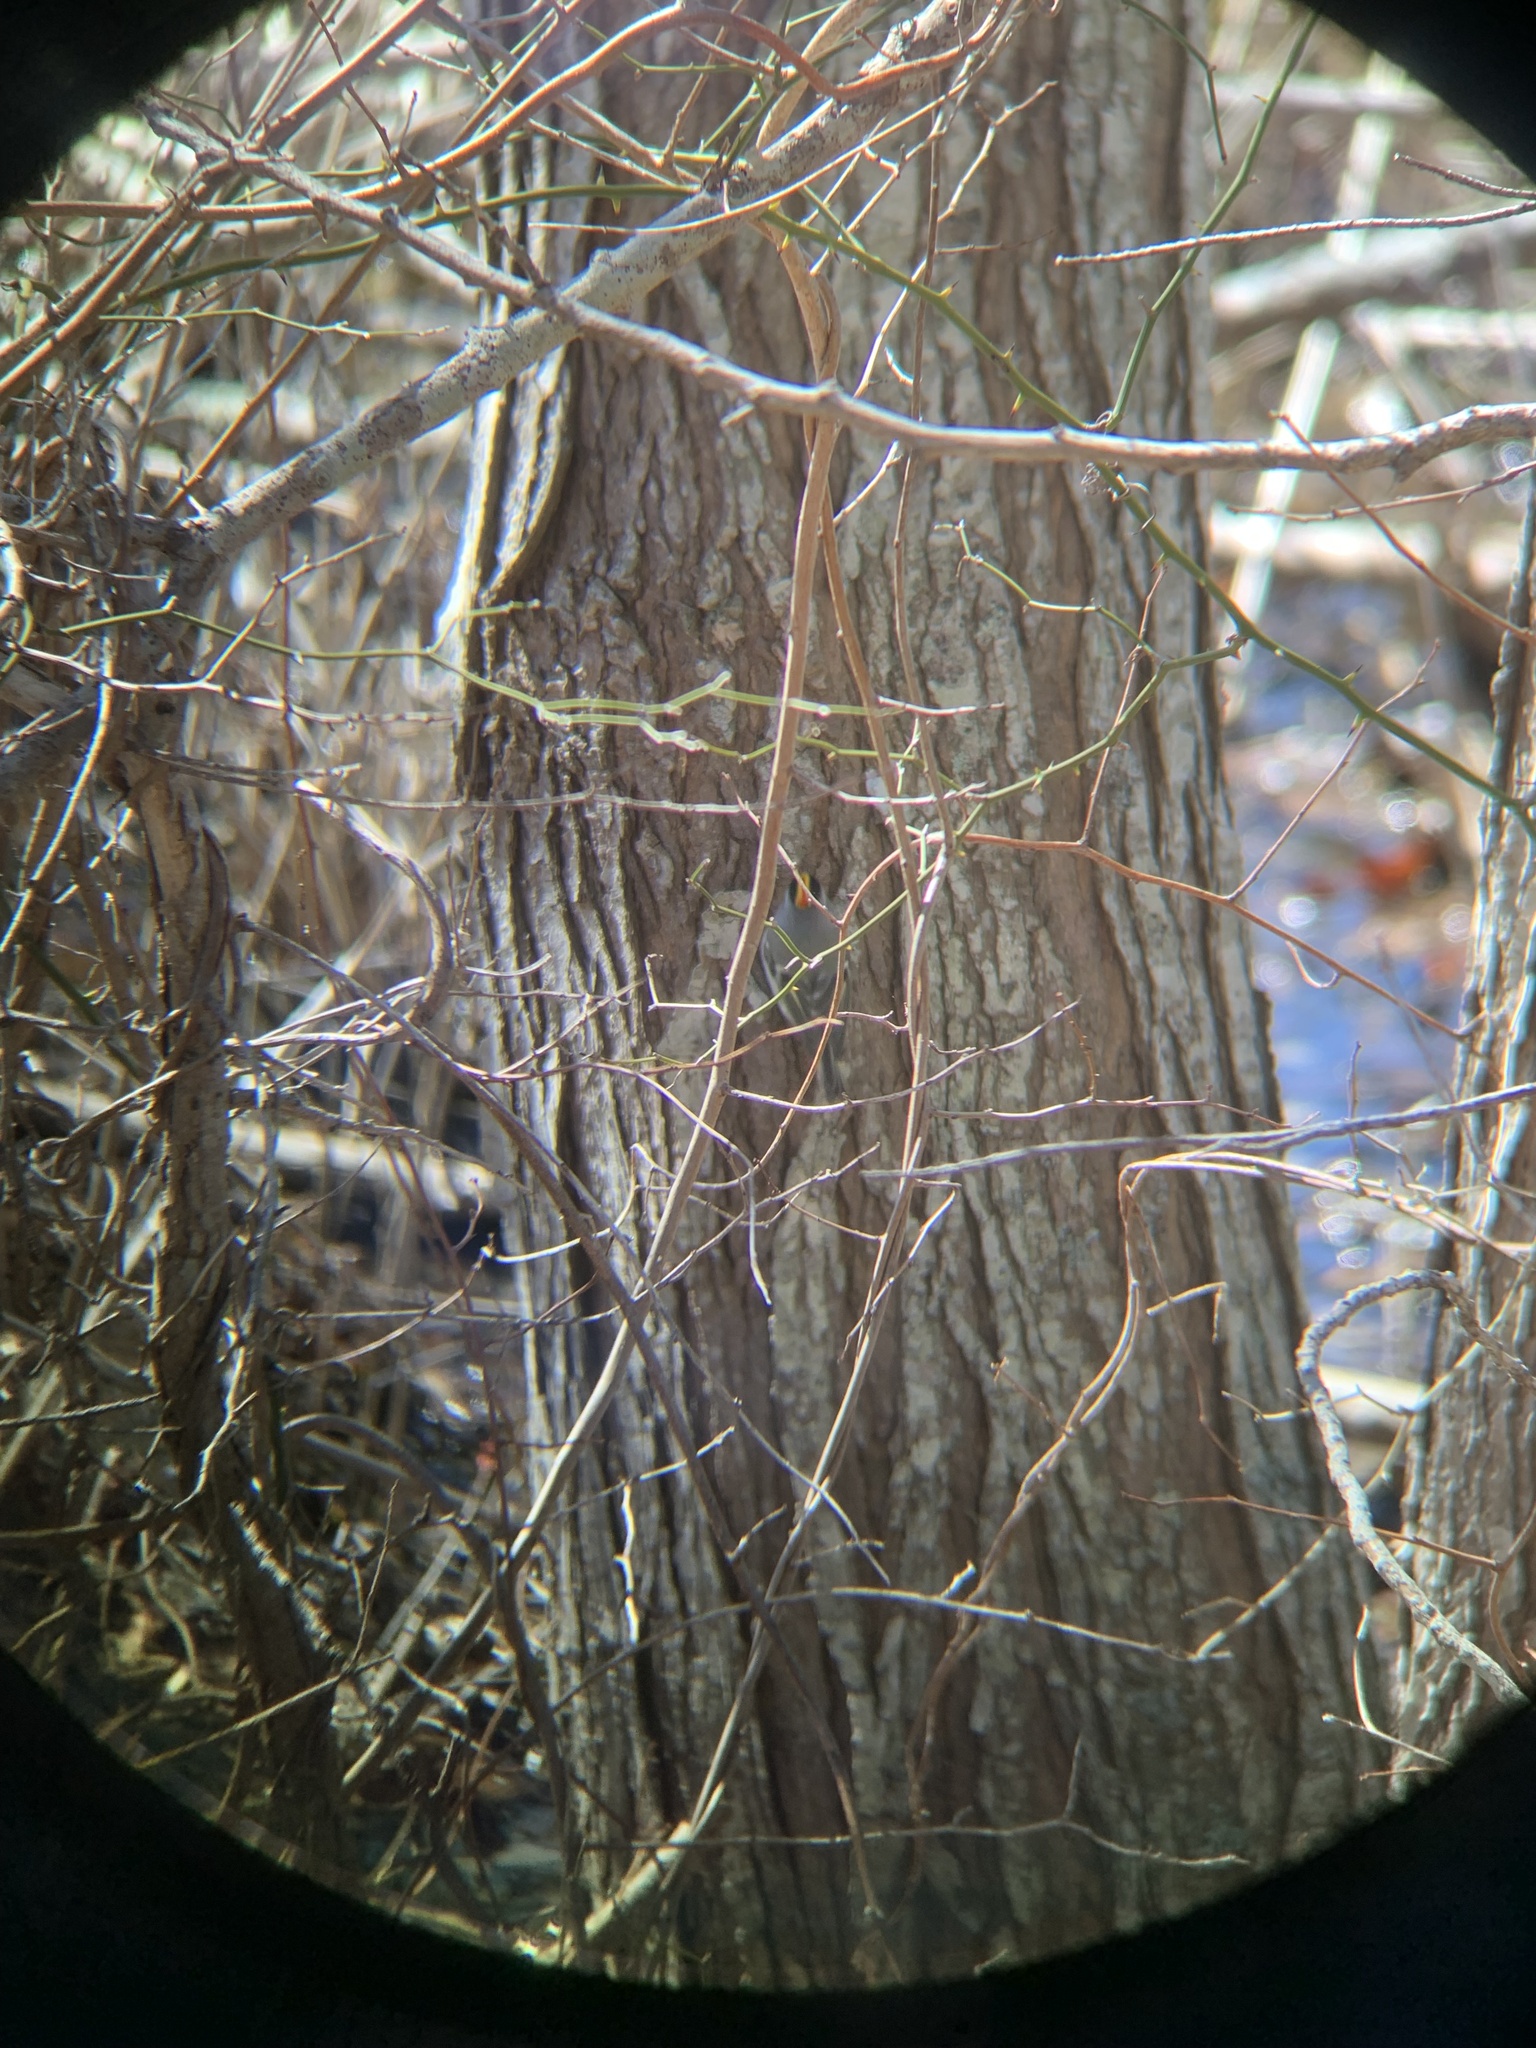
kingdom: Animalia
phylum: Chordata
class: Aves
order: Passeriformes
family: Regulidae
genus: Regulus
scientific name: Regulus satrapa
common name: Golden-crowned kinglet
